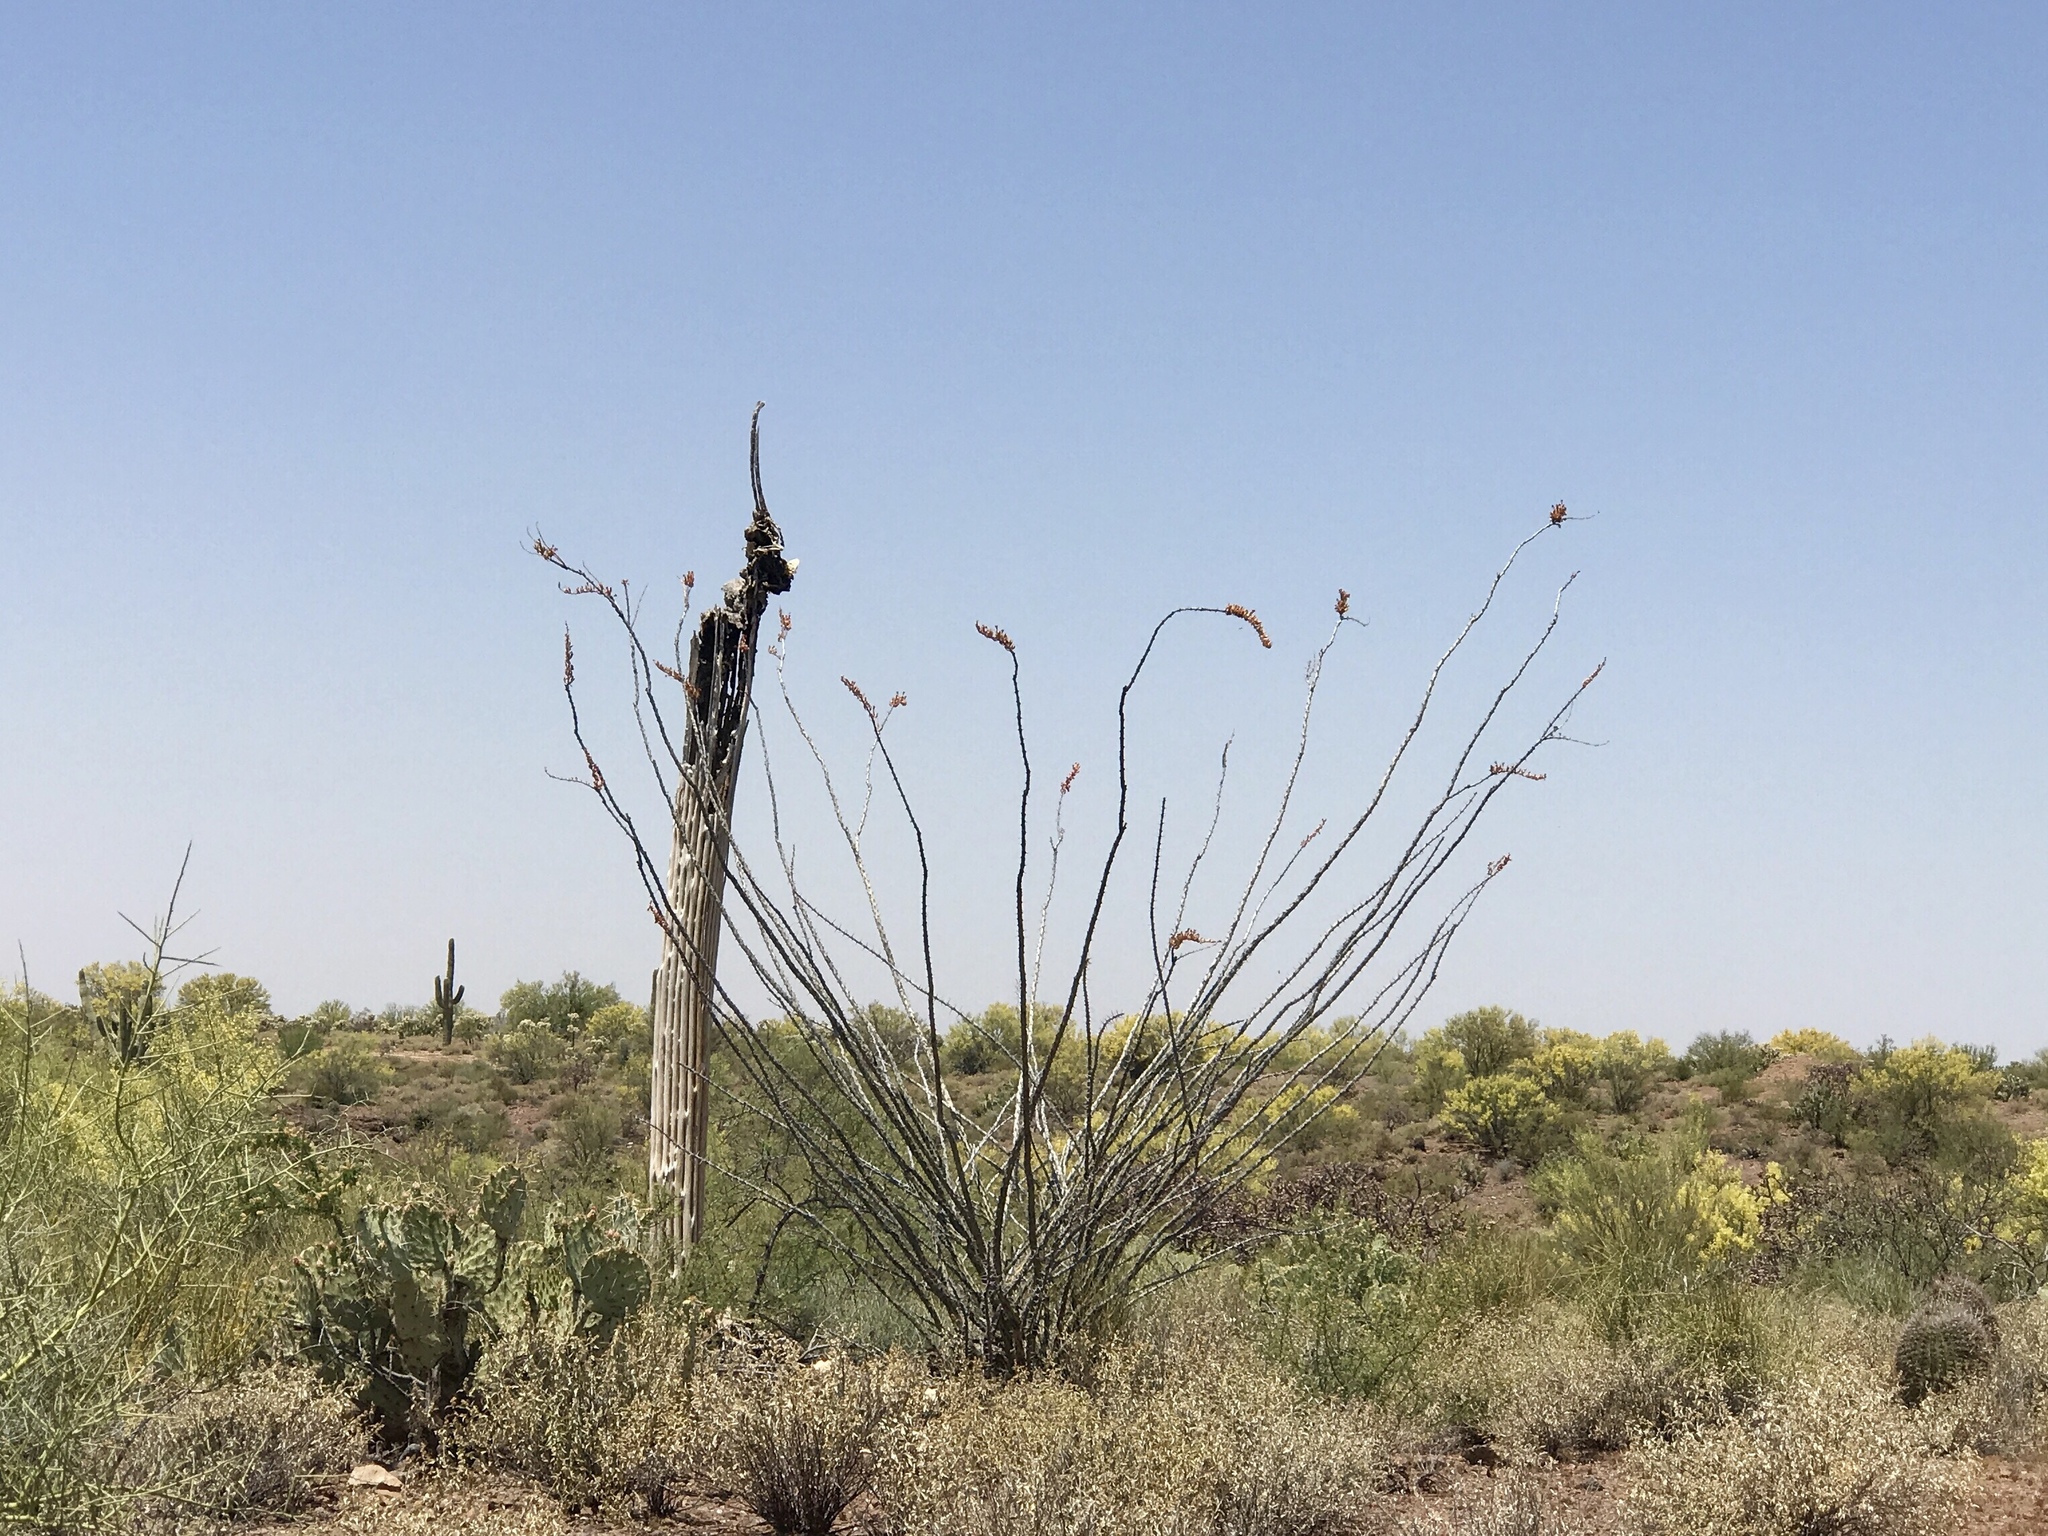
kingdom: Plantae
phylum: Tracheophyta
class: Magnoliopsida
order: Ericales
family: Fouquieriaceae
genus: Fouquieria
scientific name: Fouquieria splendens
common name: Vine-cactus
